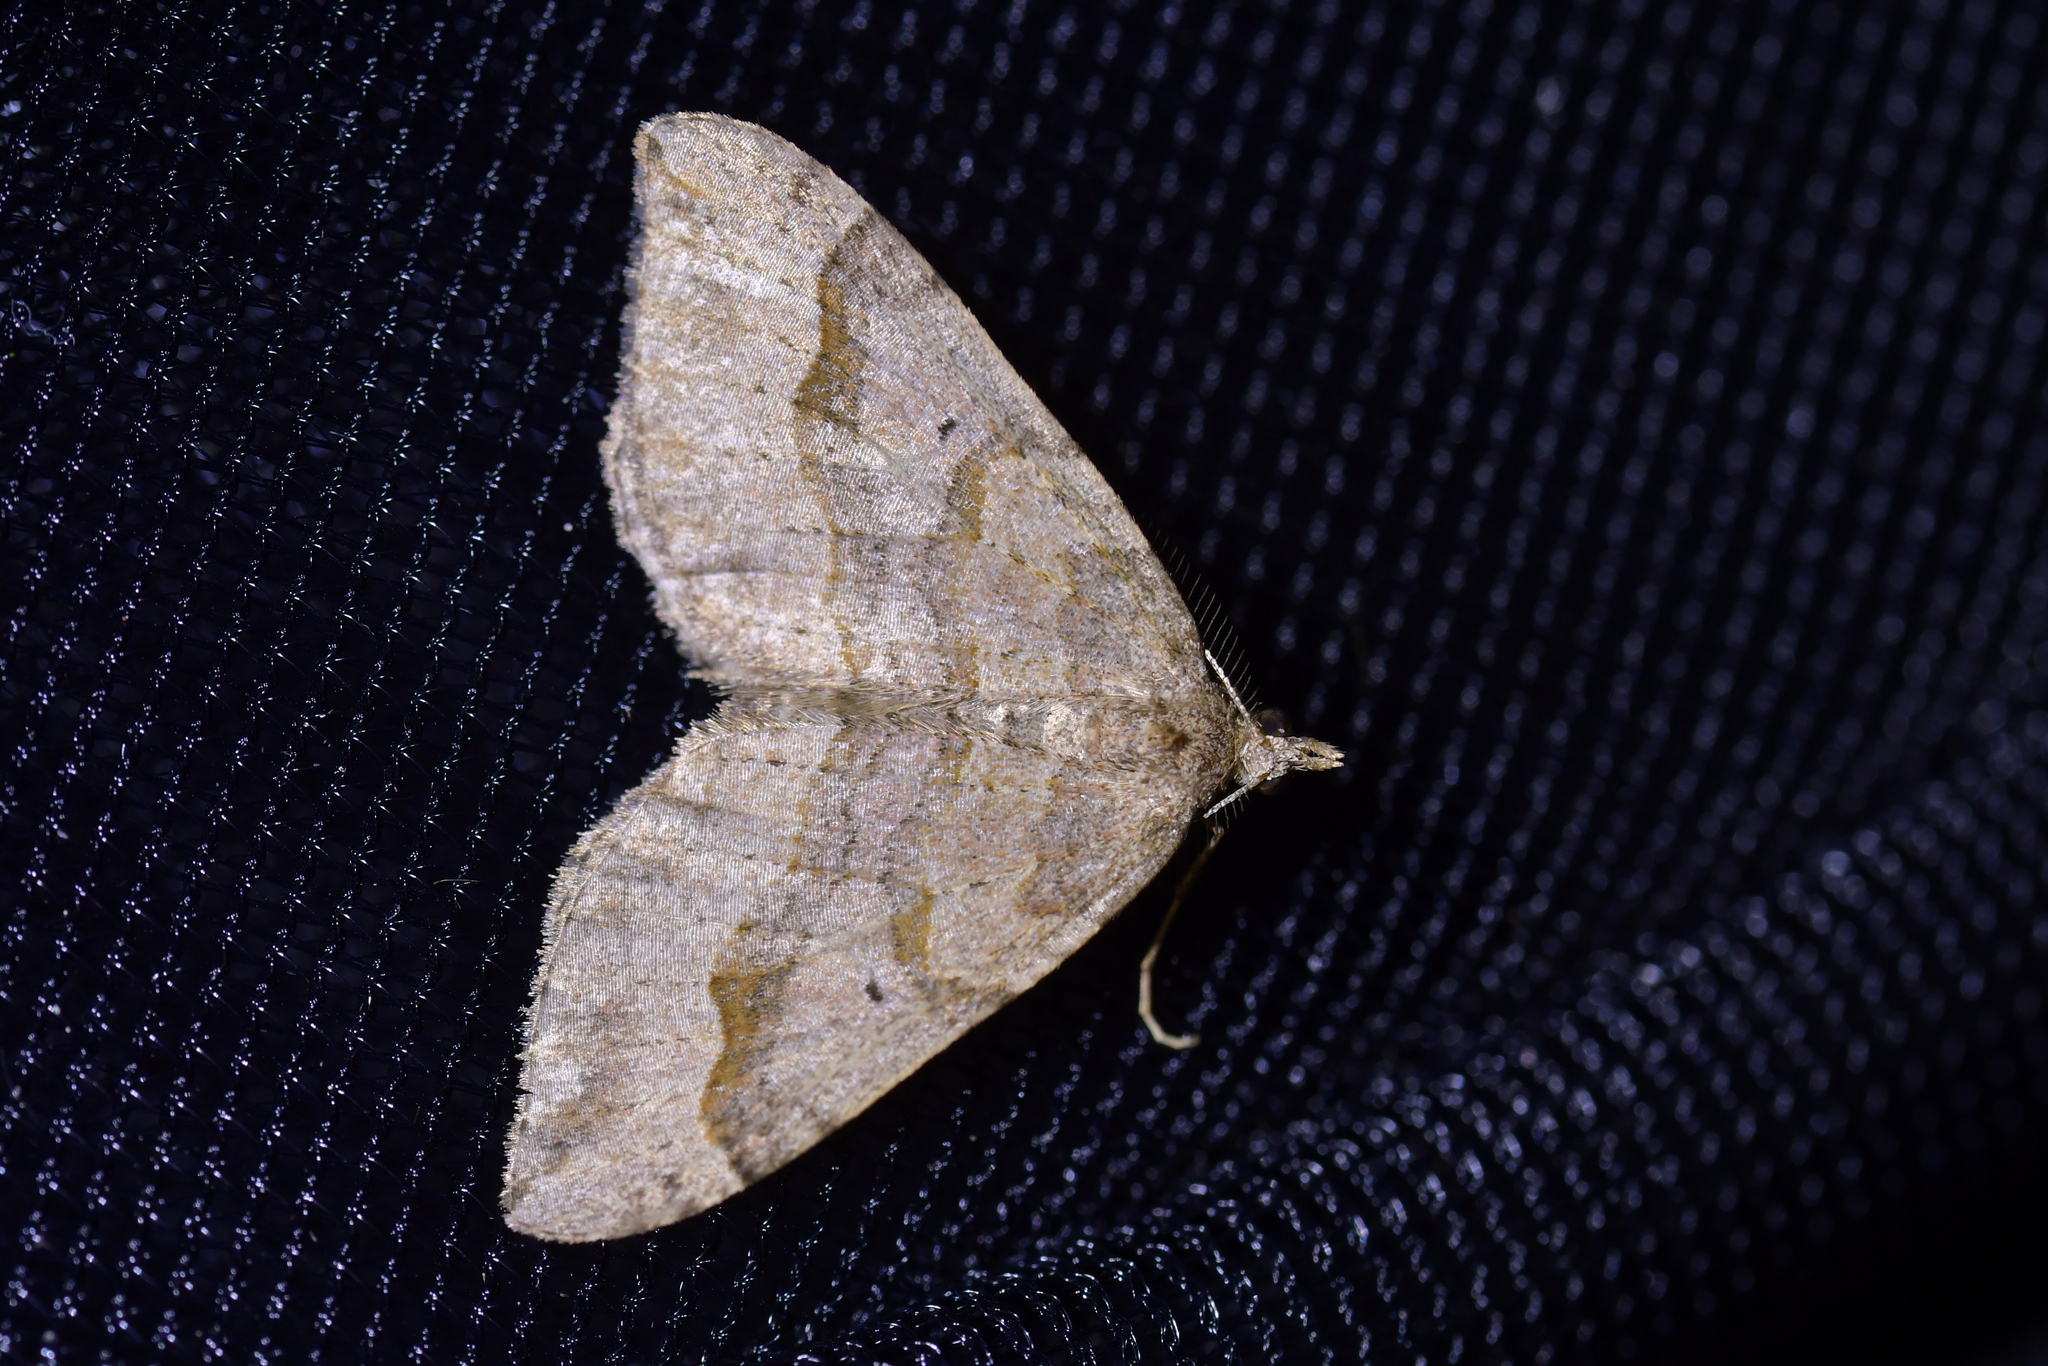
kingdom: Animalia
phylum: Arthropoda
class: Insecta
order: Lepidoptera
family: Geometridae
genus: Epyaxa
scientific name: Epyaxa rosearia
